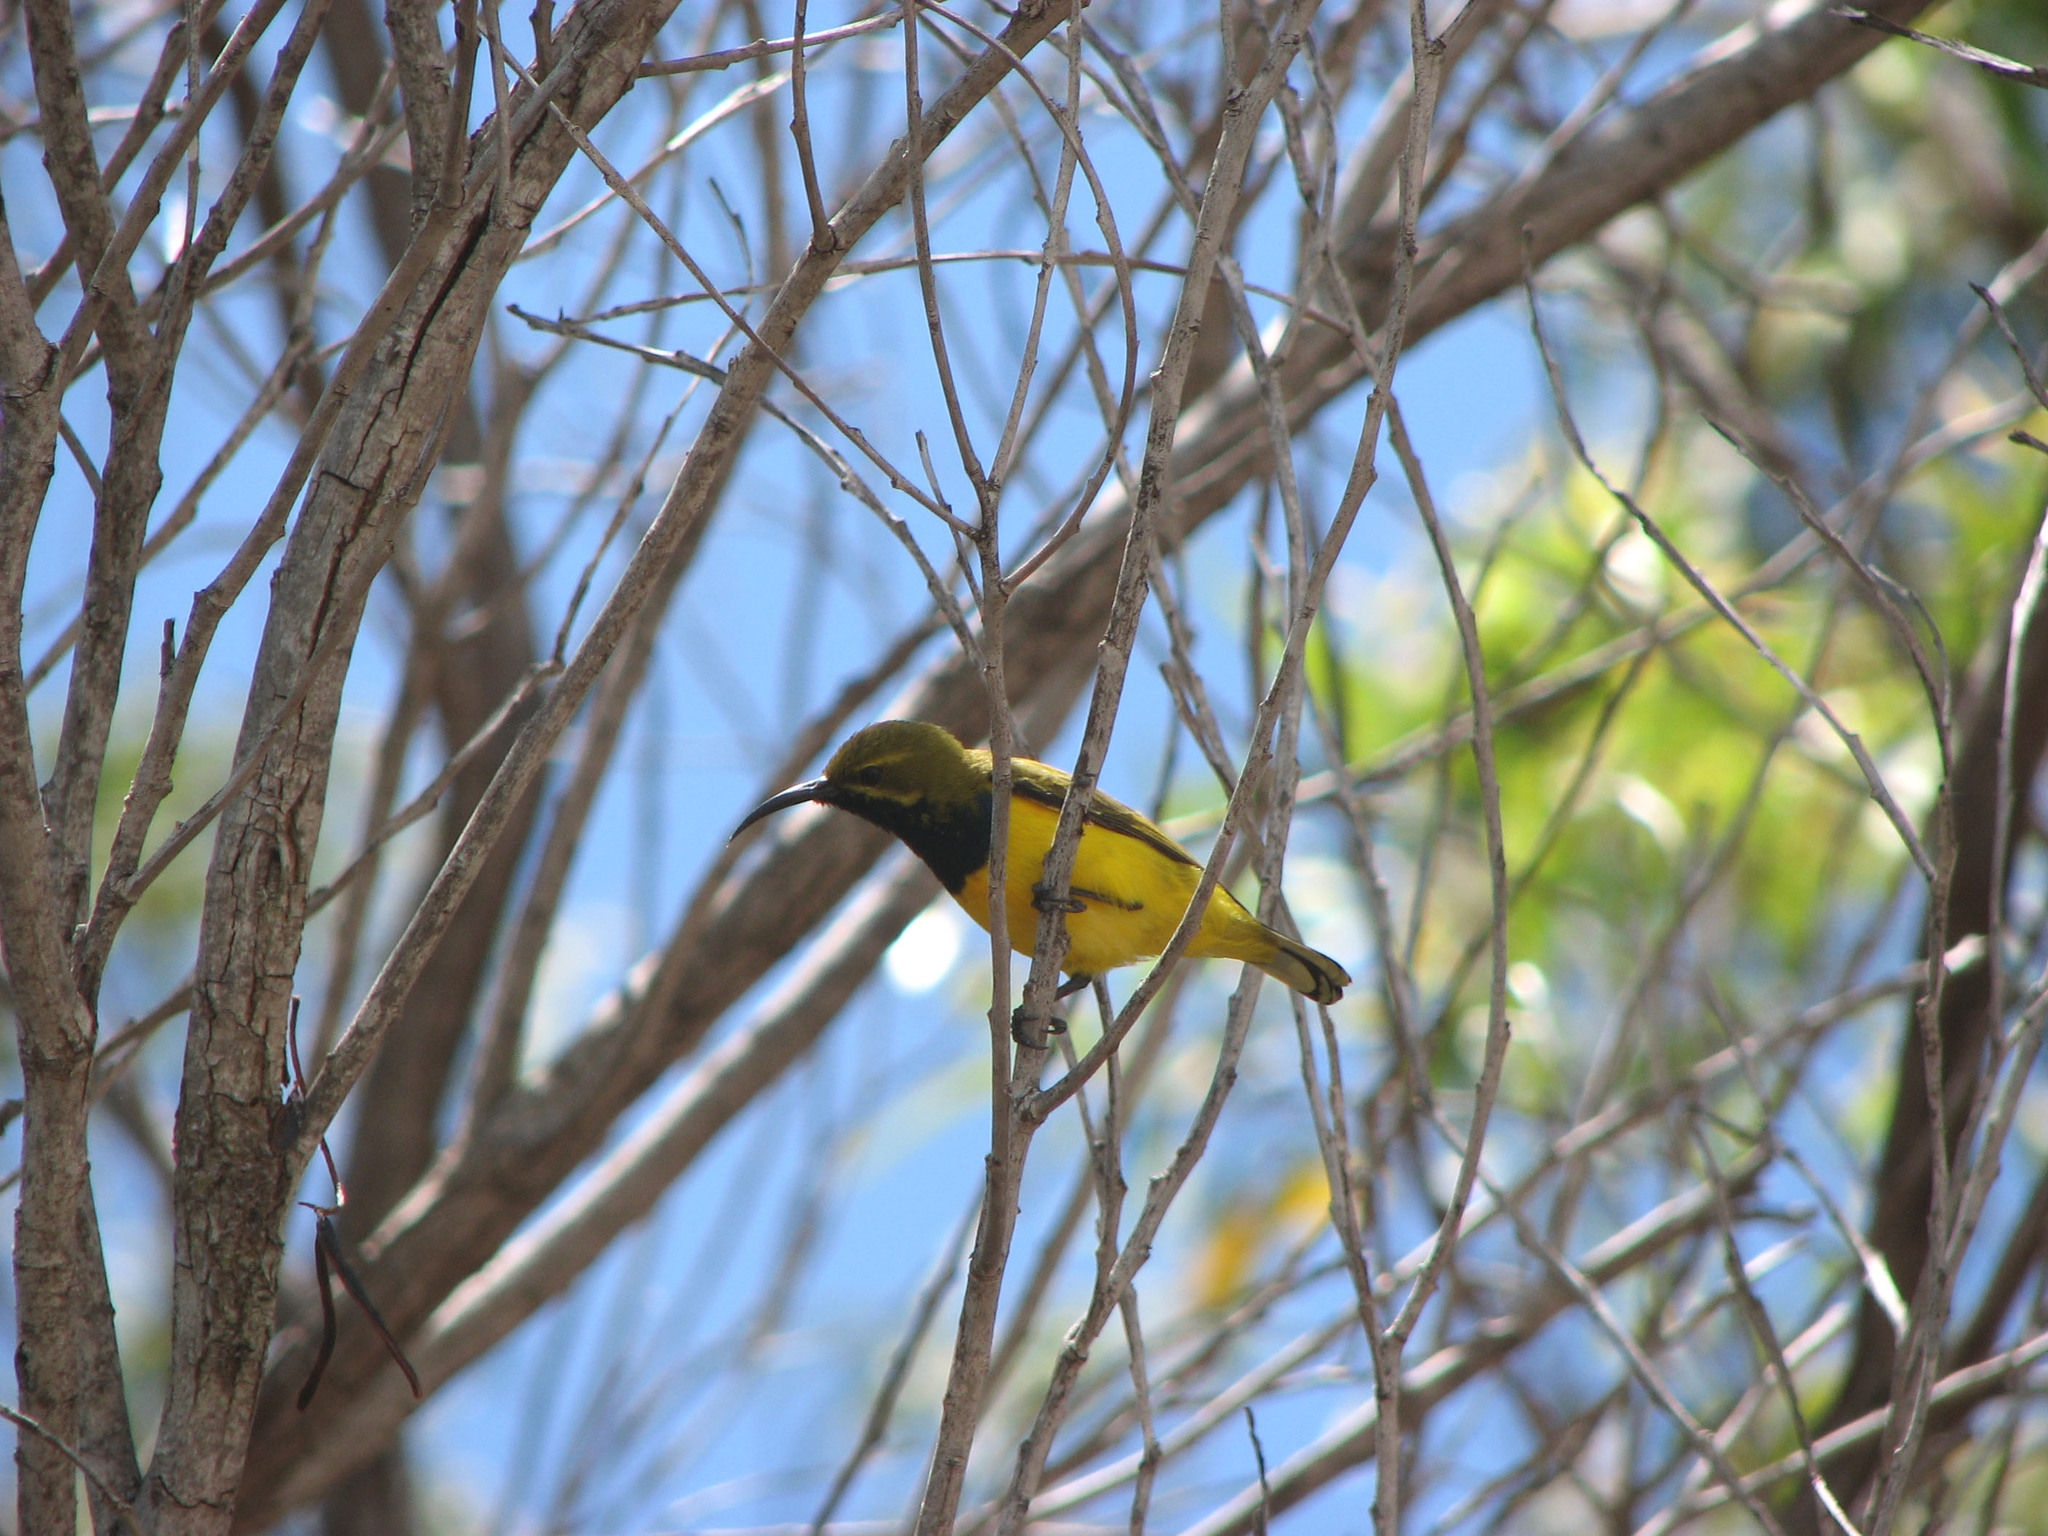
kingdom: Animalia
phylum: Chordata
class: Aves
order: Passeriformes
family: Nectariniidae
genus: Cinnyris
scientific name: Cinnyris
